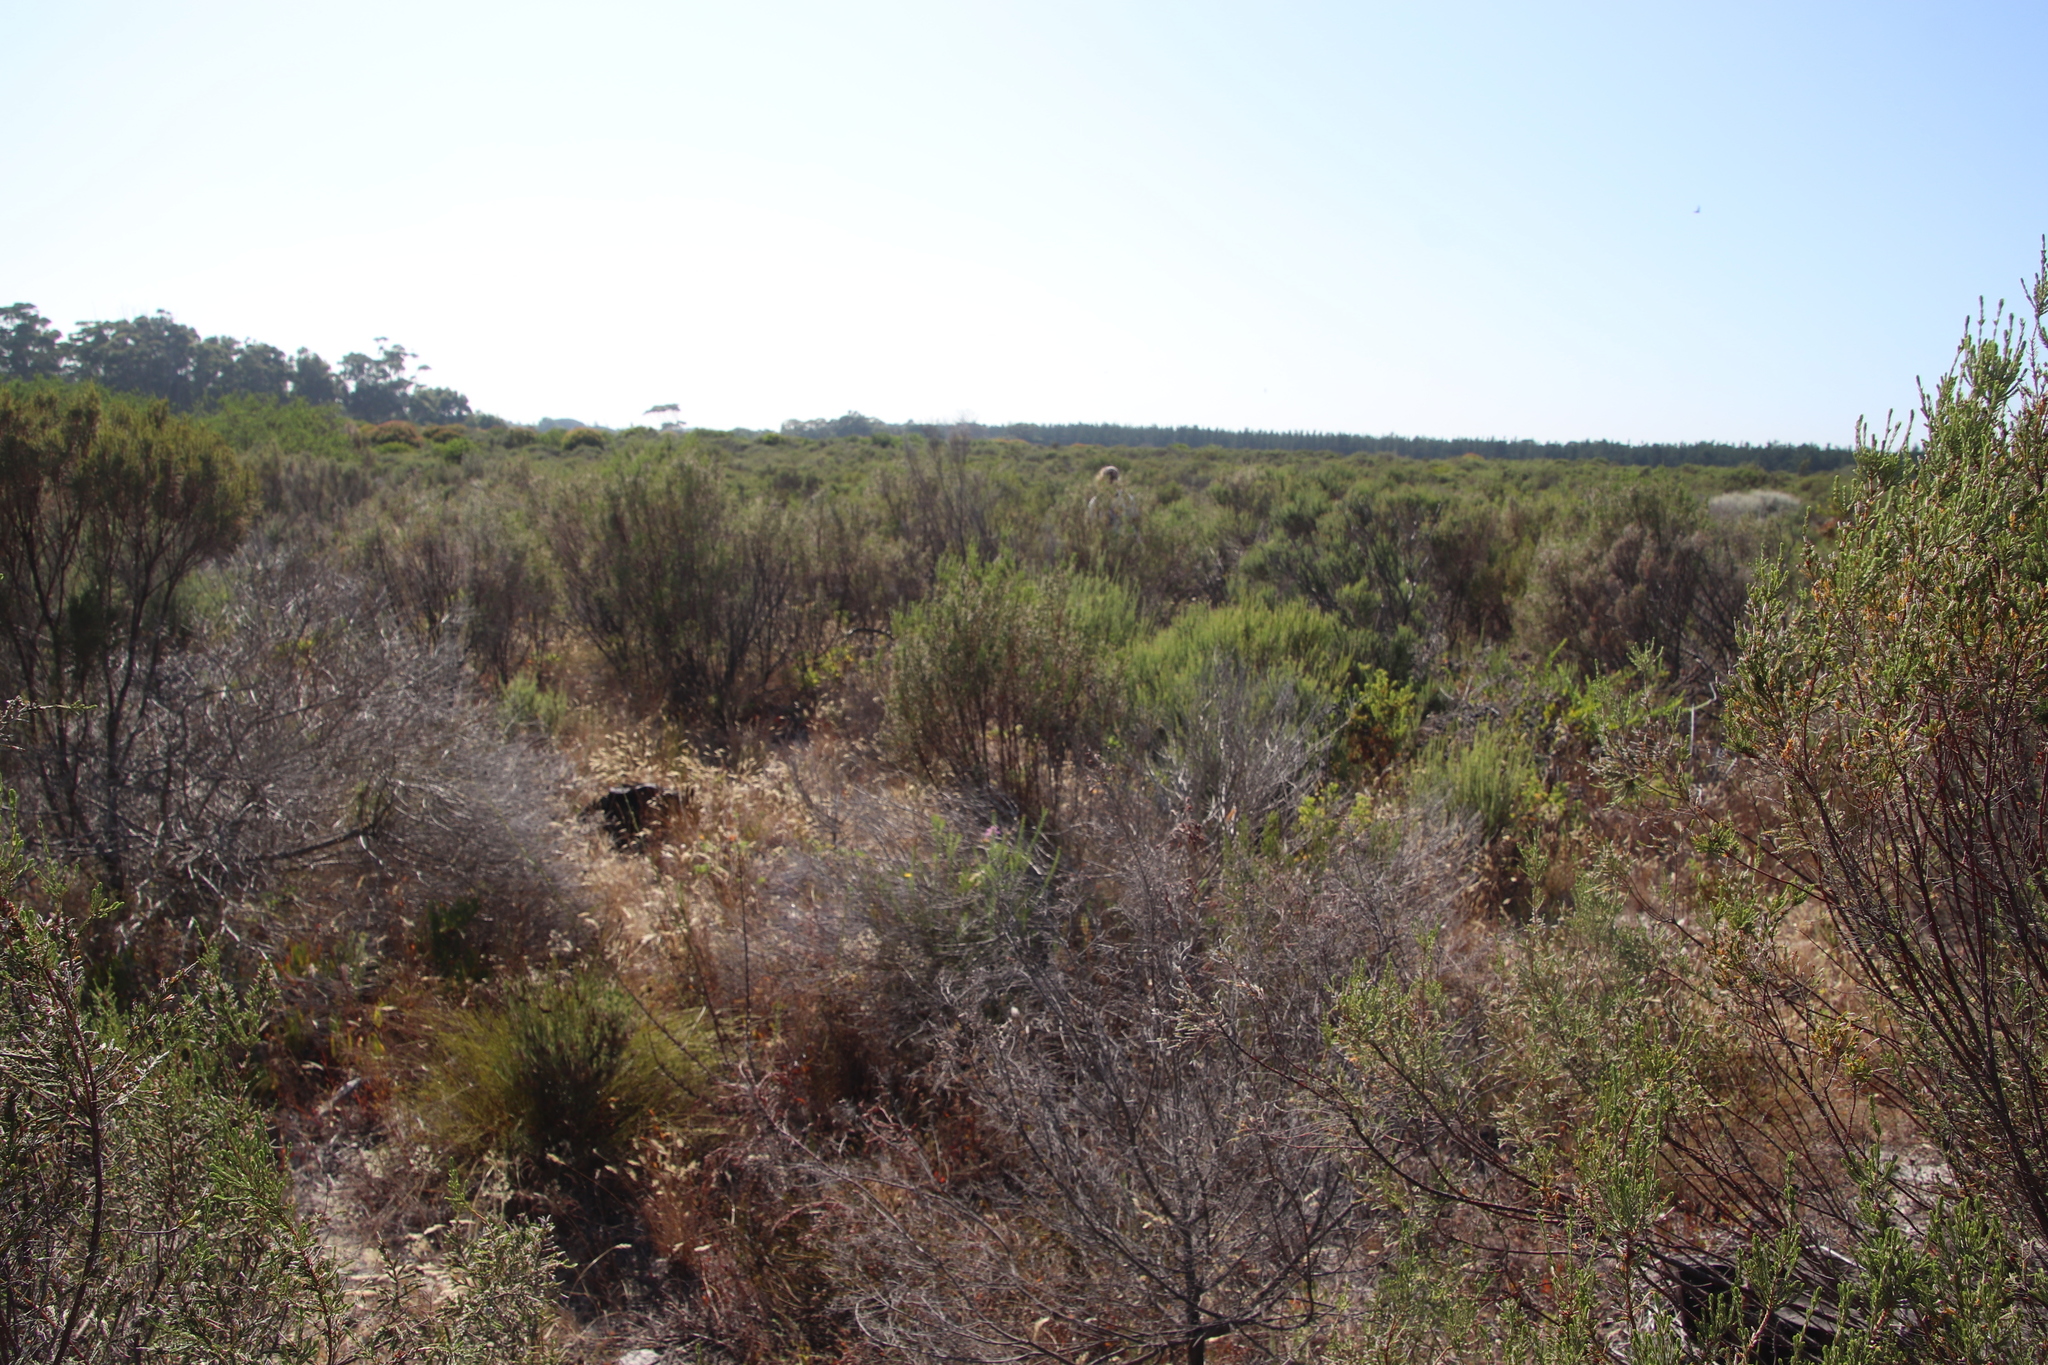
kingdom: Plantae
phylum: Tracheophyta
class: Magnoliopsida
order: Asterales
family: Asteraceae
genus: Metalasia
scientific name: Metalasia densa
